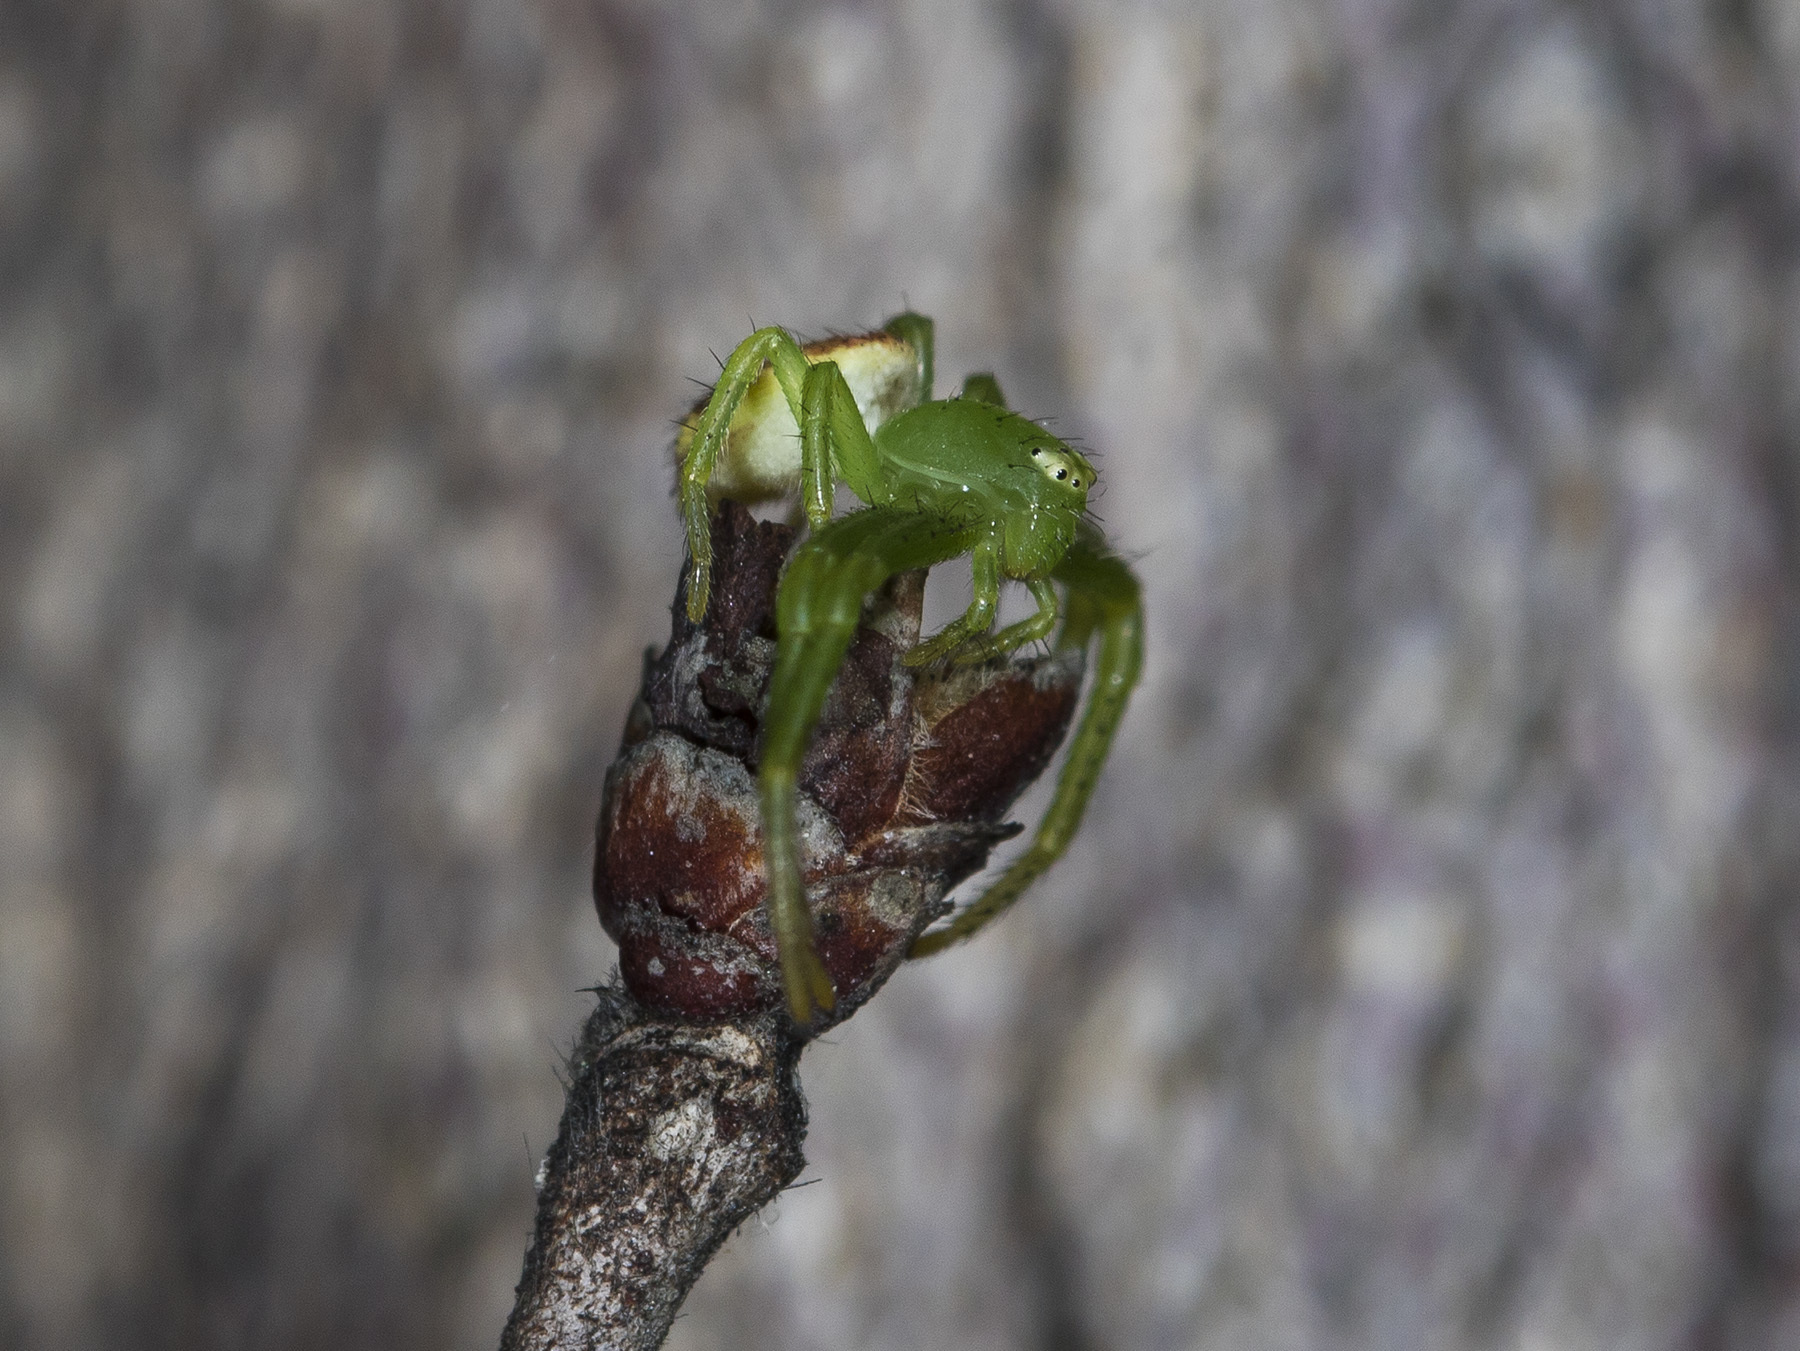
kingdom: Animalia
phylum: Arthropoda
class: Arachnida
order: Araneae
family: Thomisidae
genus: Diaea
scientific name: Diaea suspiciosa
